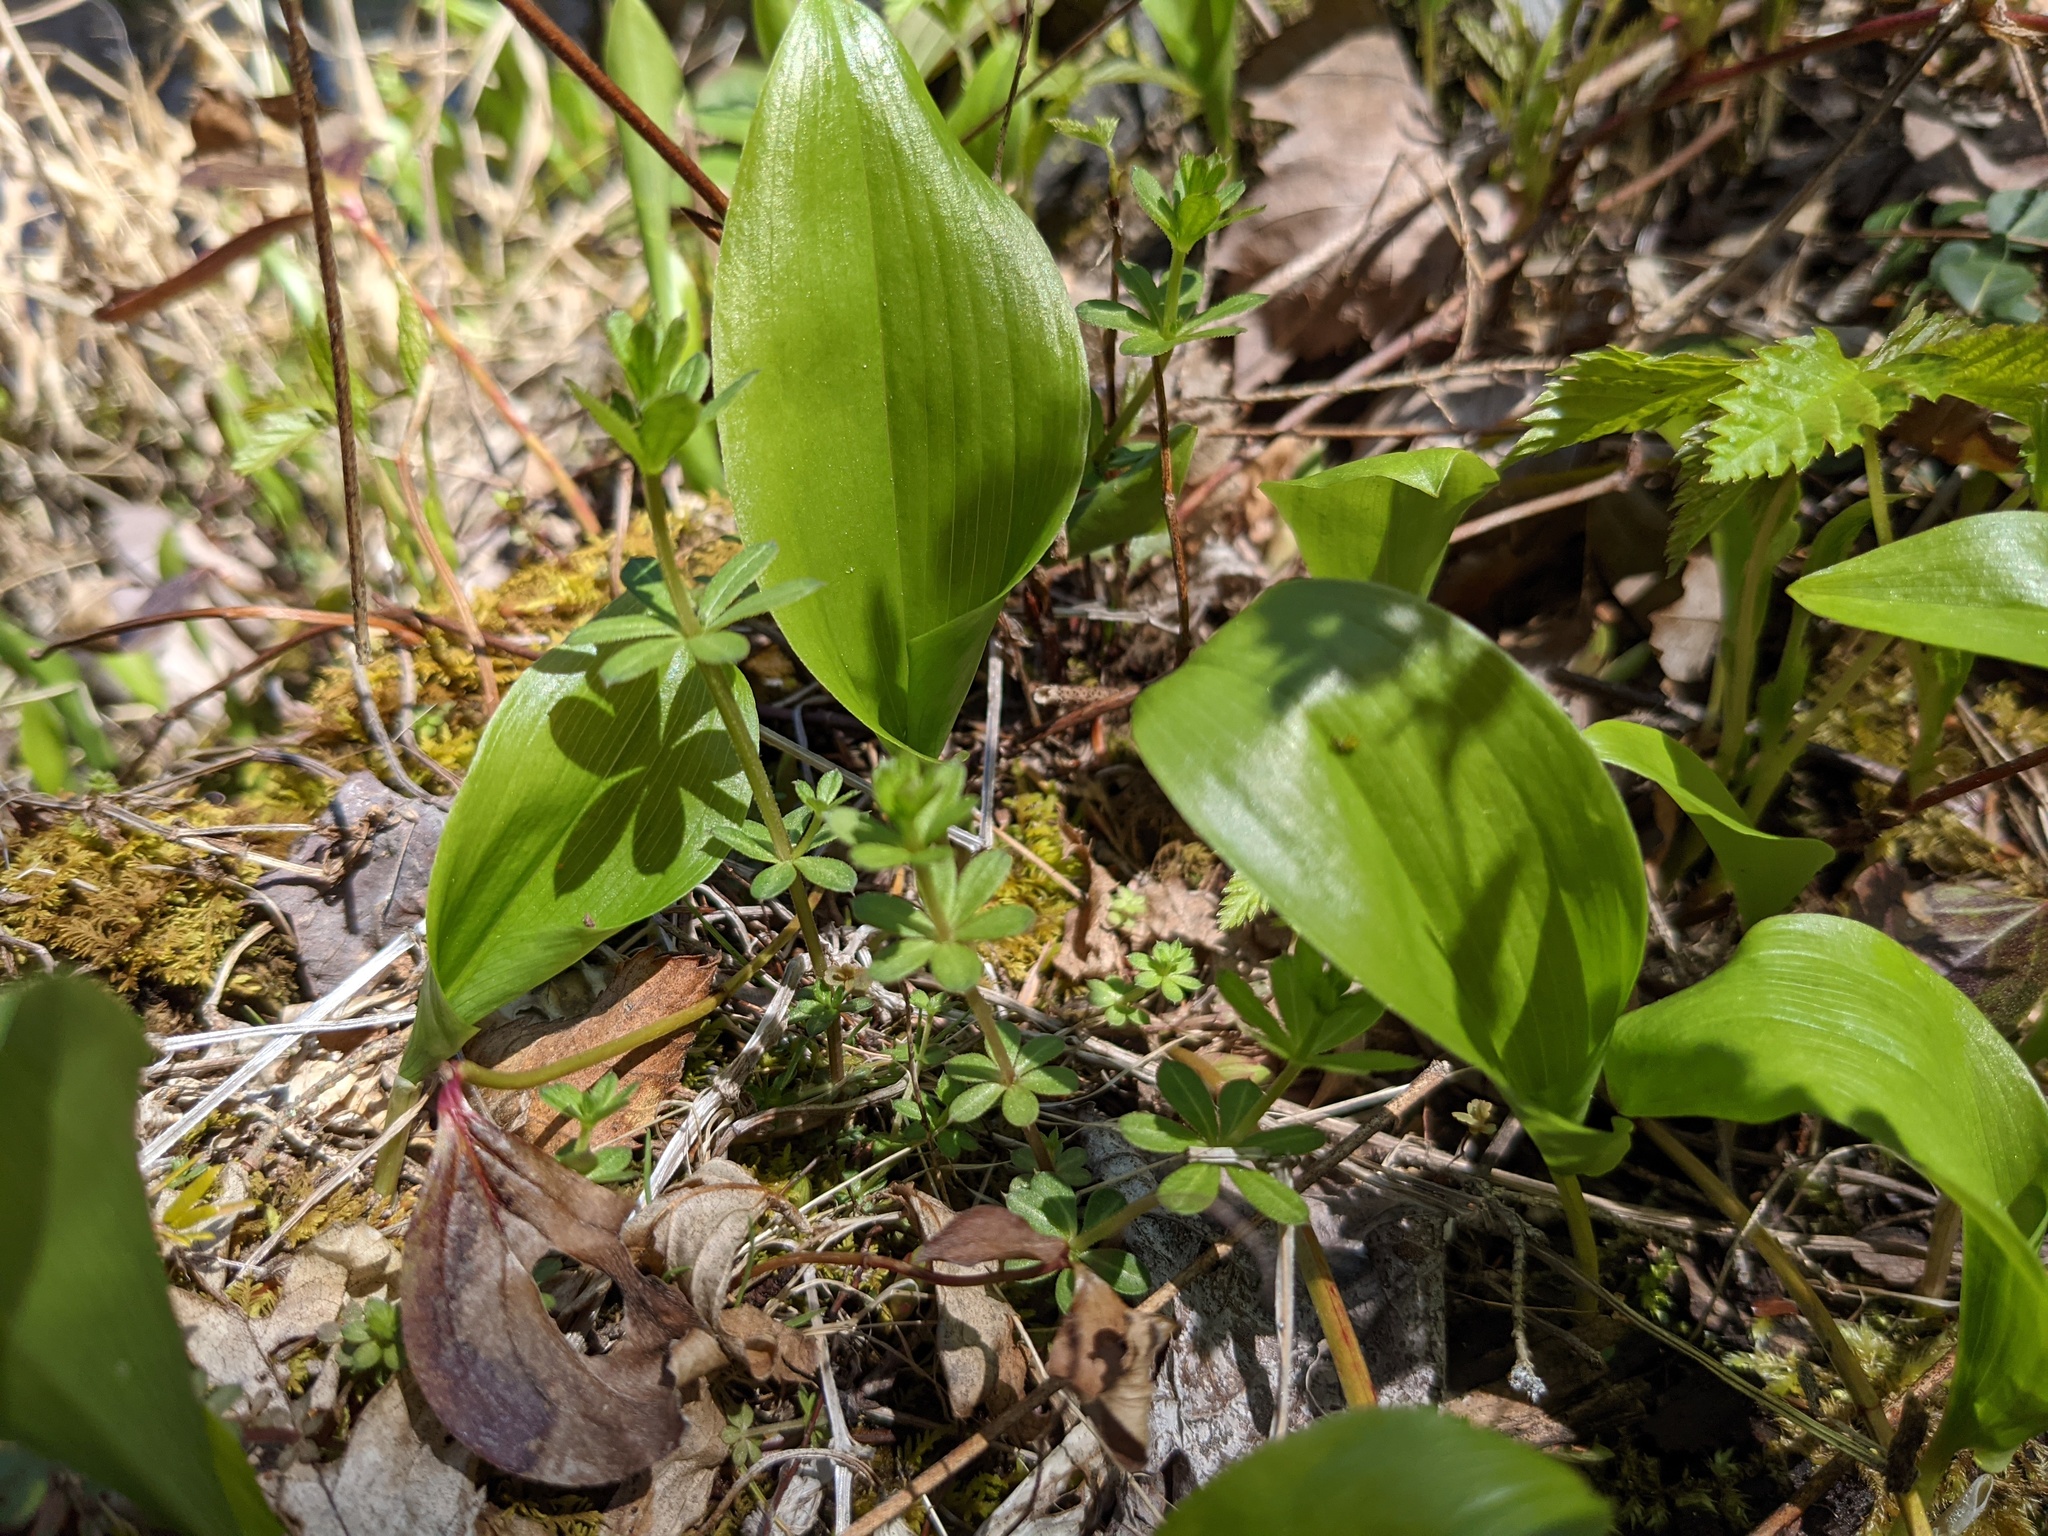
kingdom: Plantae
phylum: Tracheophyta
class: Liliopsida
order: Asparagales
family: Asparagaceae
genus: Maianthemum
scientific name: Maianthemum canadense
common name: False lily-of-the-valley
